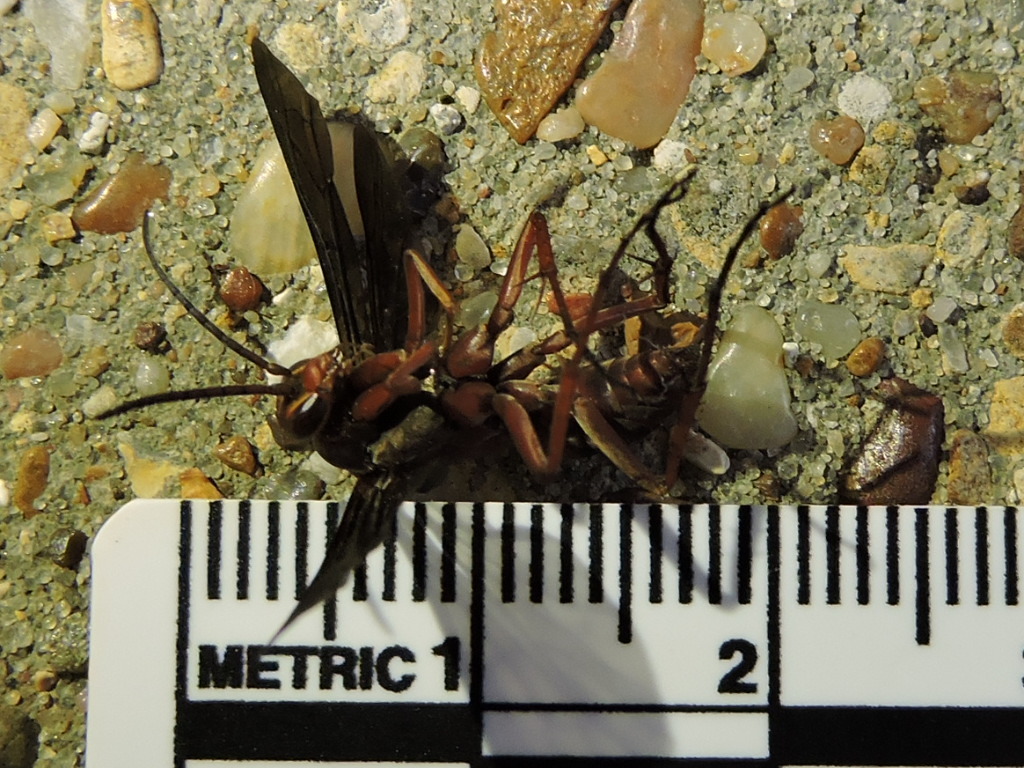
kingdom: Animalia
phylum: Arthropoda
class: Insecta
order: Hymenoptera
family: Pompilidae
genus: Tachypompilus
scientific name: Tachypompilus ferrugineus
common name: Rusty spider wasp
